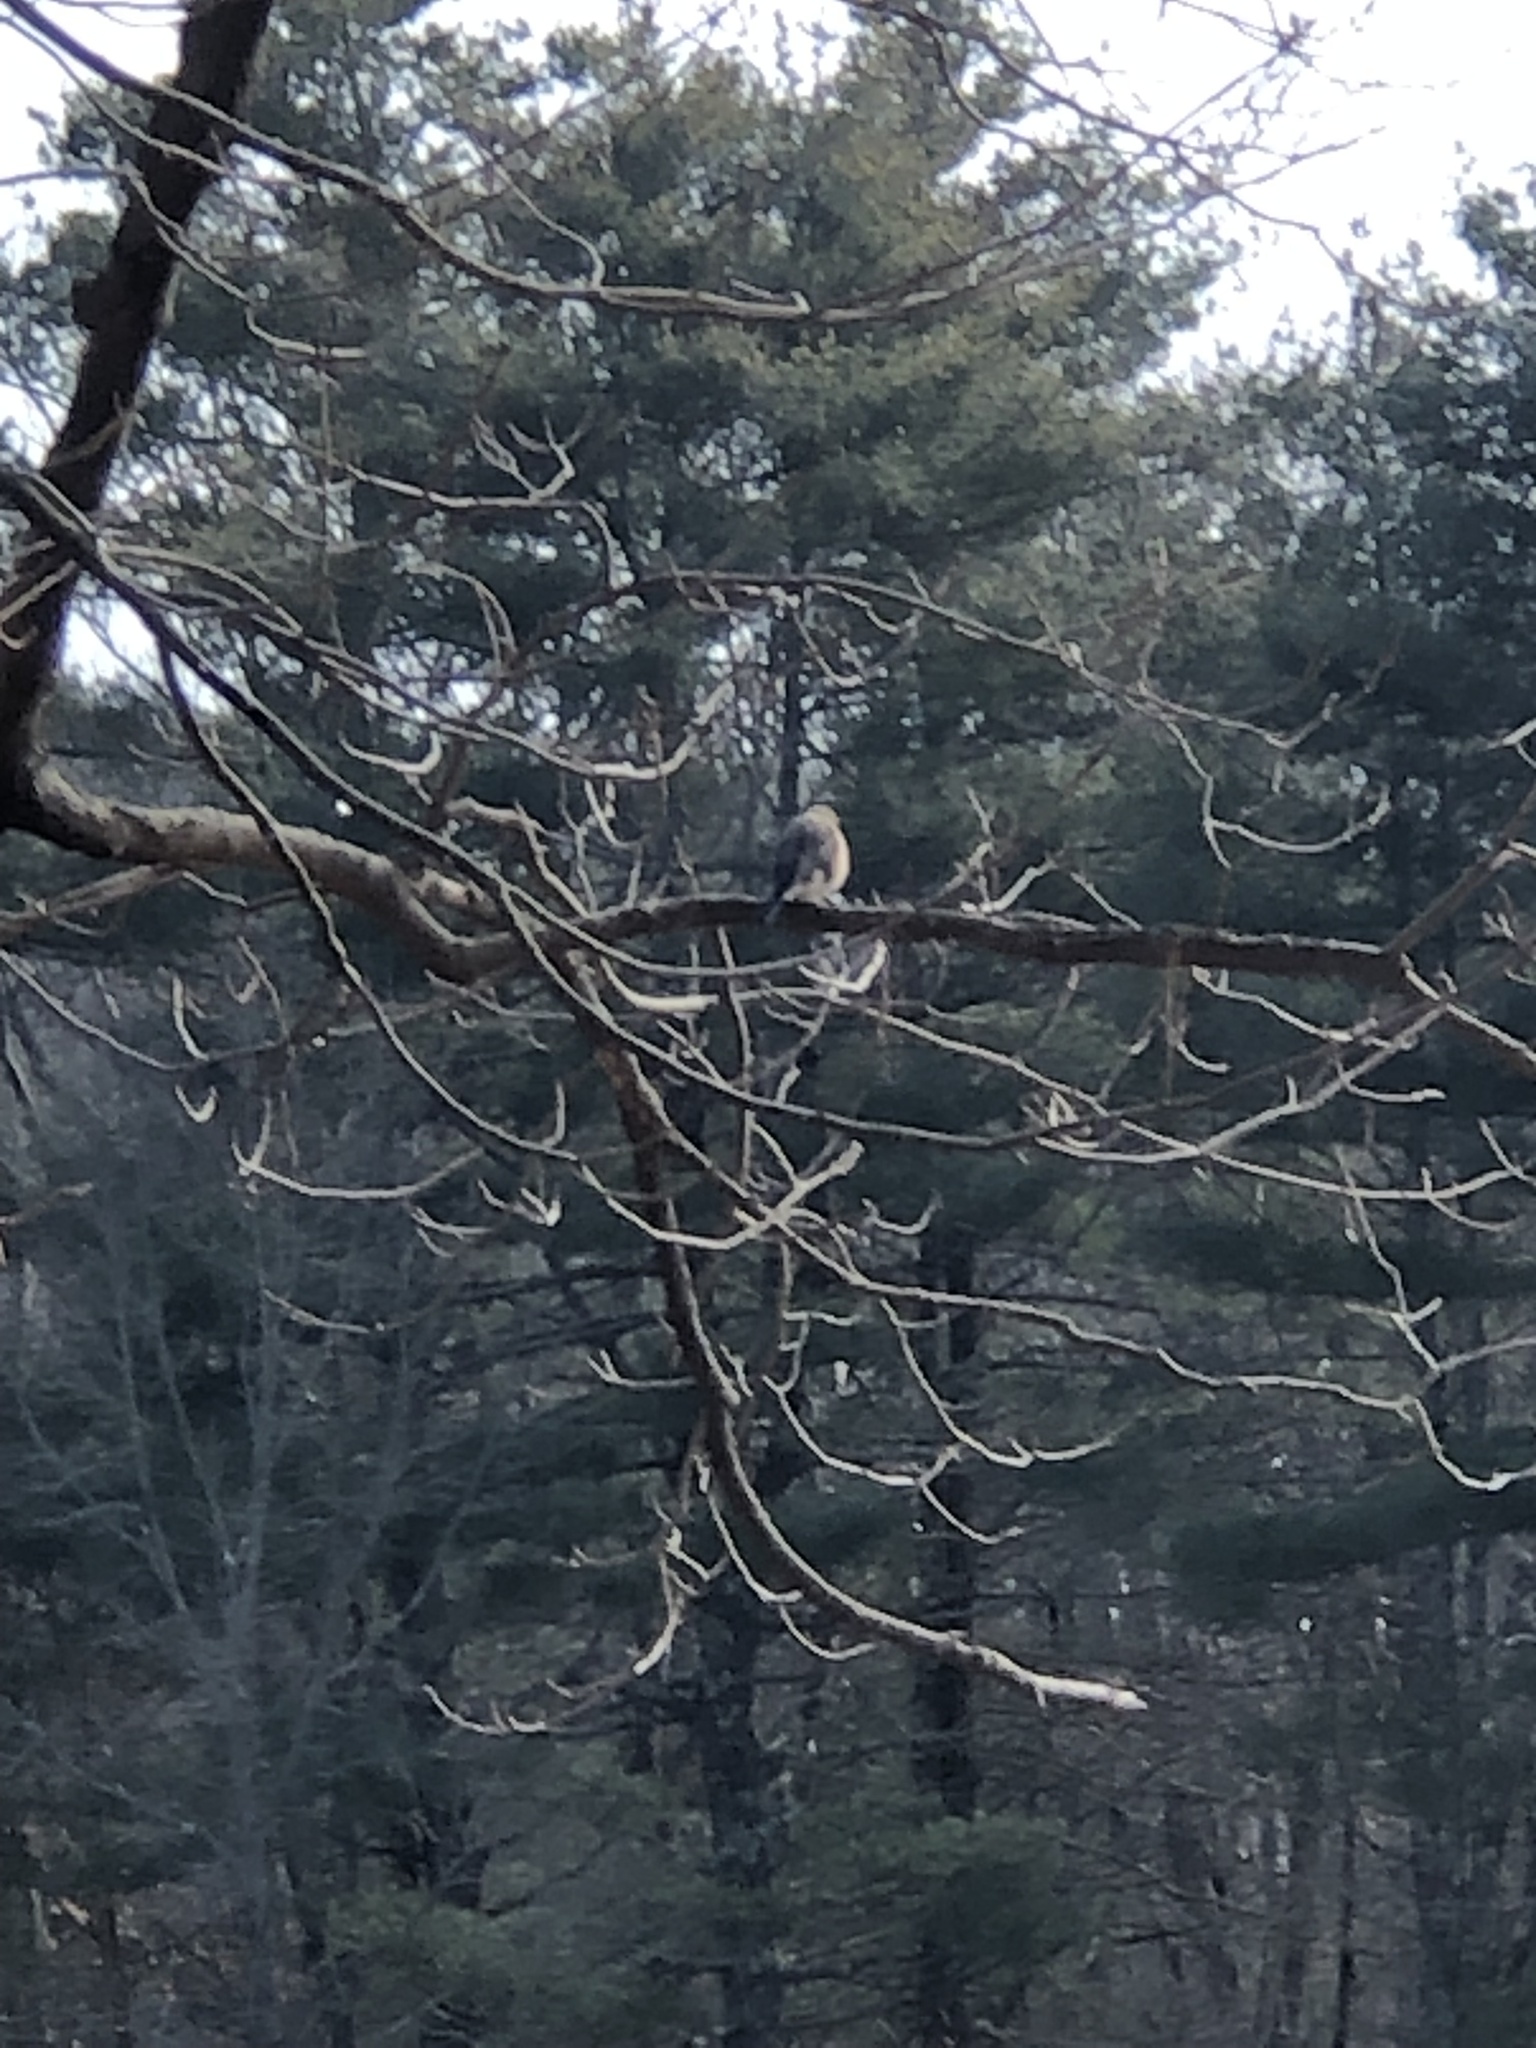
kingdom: Animalia
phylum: Chordata
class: Aves
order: Passeriformes
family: Turdidae
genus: Sialia
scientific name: Sialia sialis
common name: Eastern bluebird
